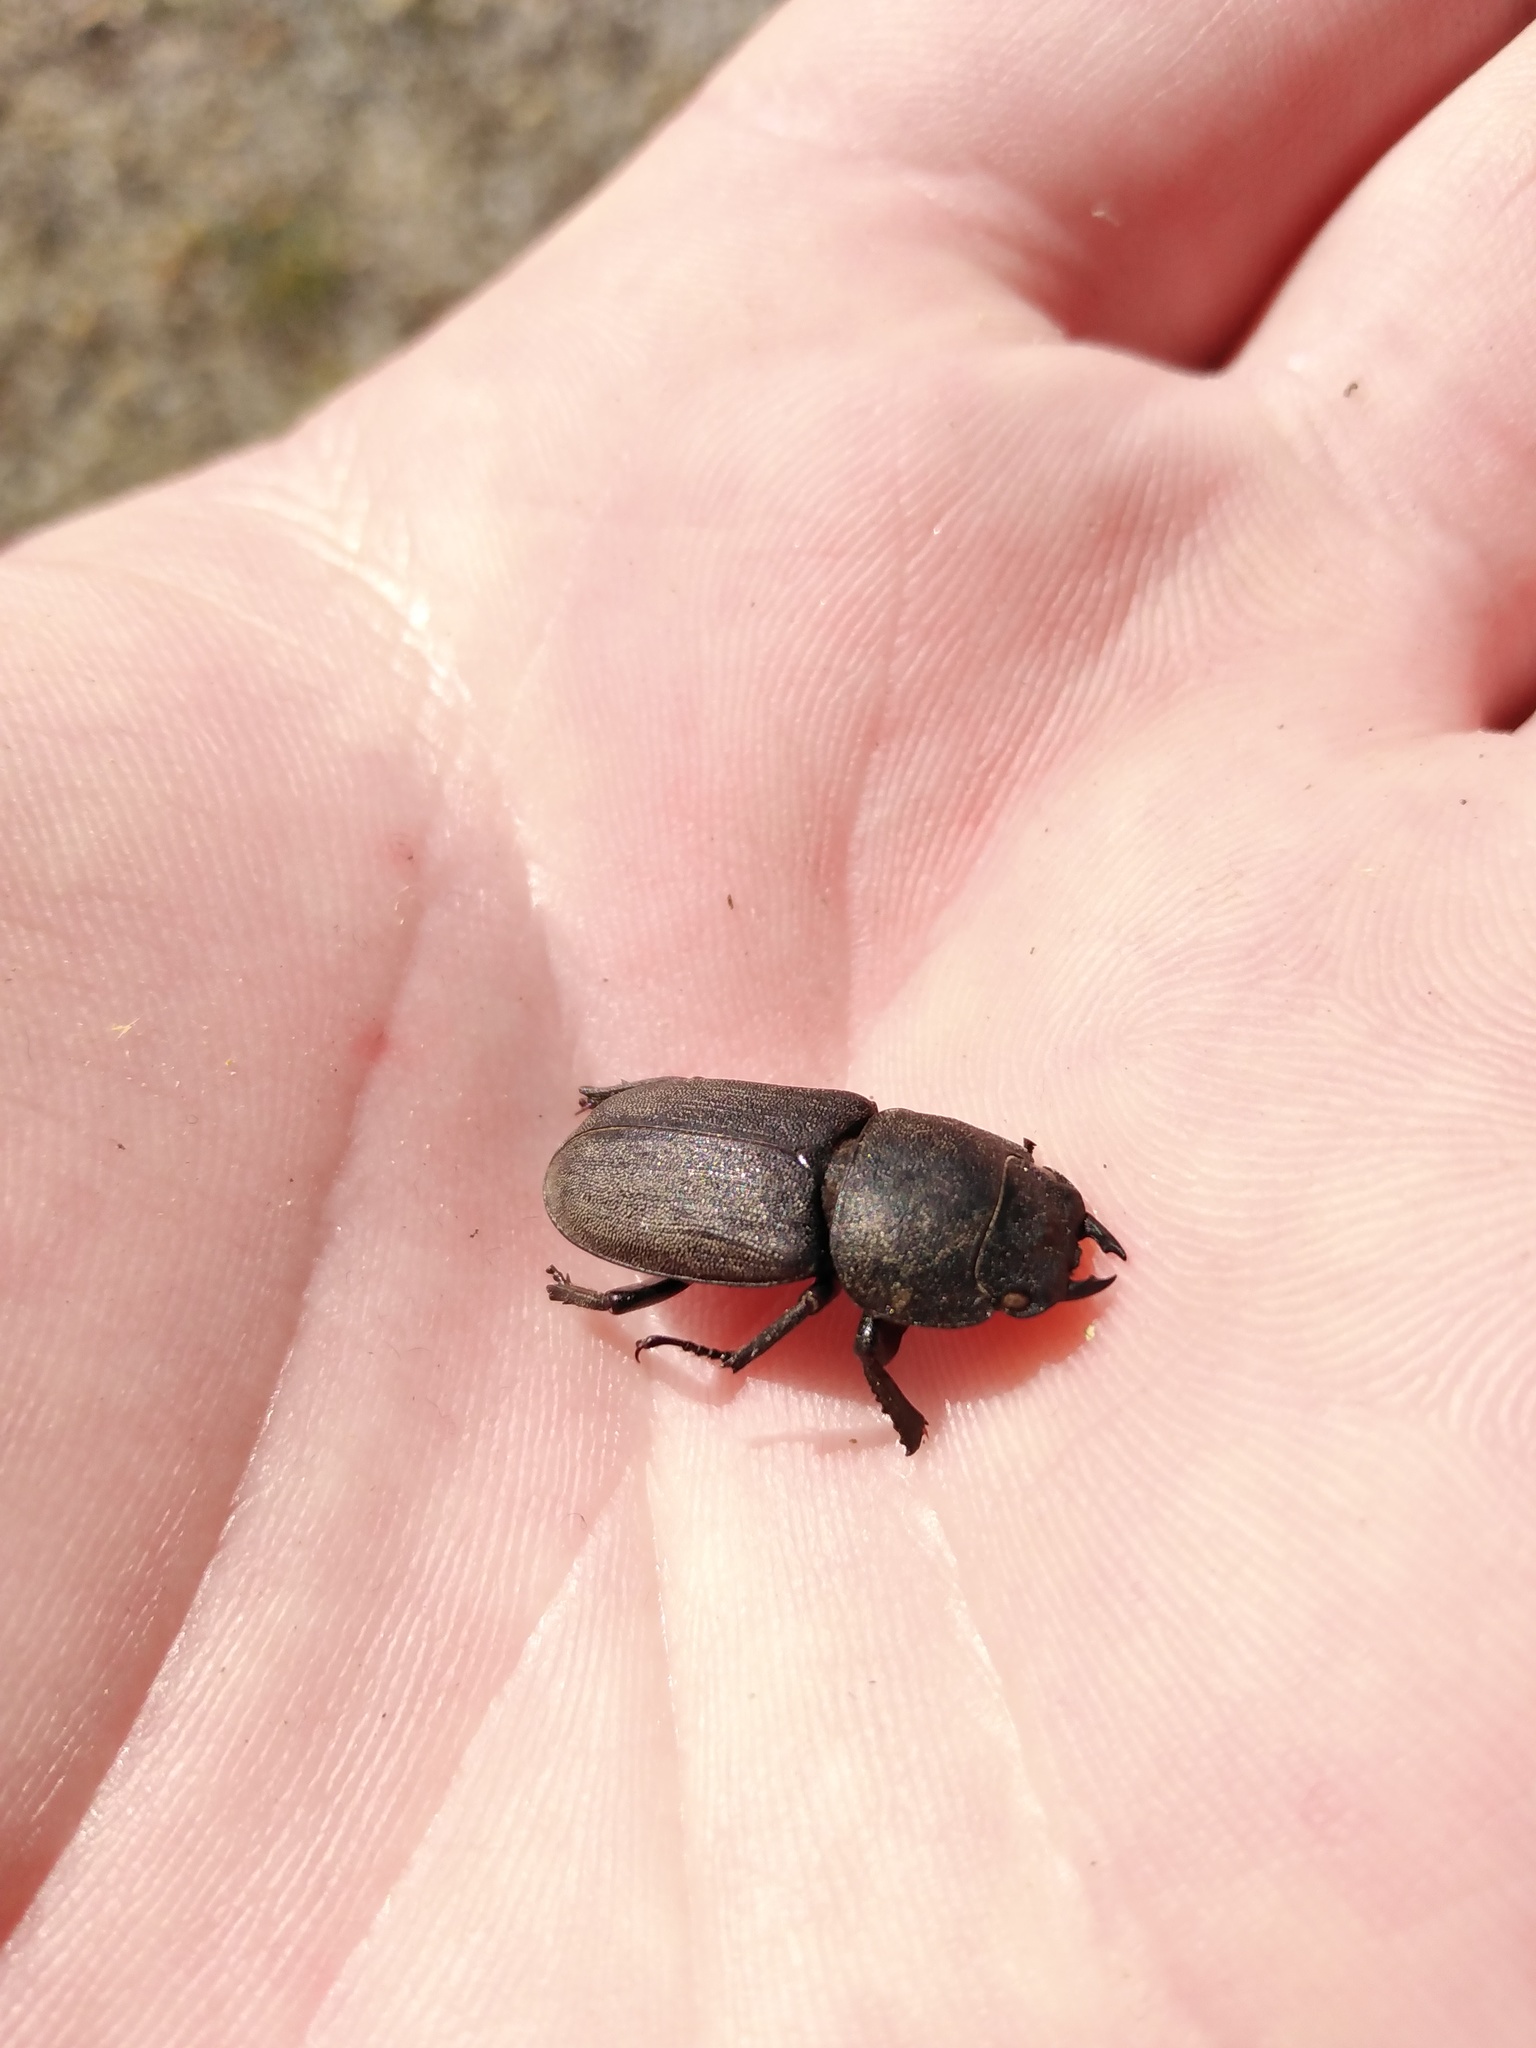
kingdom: Animalia
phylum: Arthropoda
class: Insecta
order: Coleoptera
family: Lucanidae
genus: Dorcus
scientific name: Dorcus parallelipipedus
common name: Lesser stag beetle
